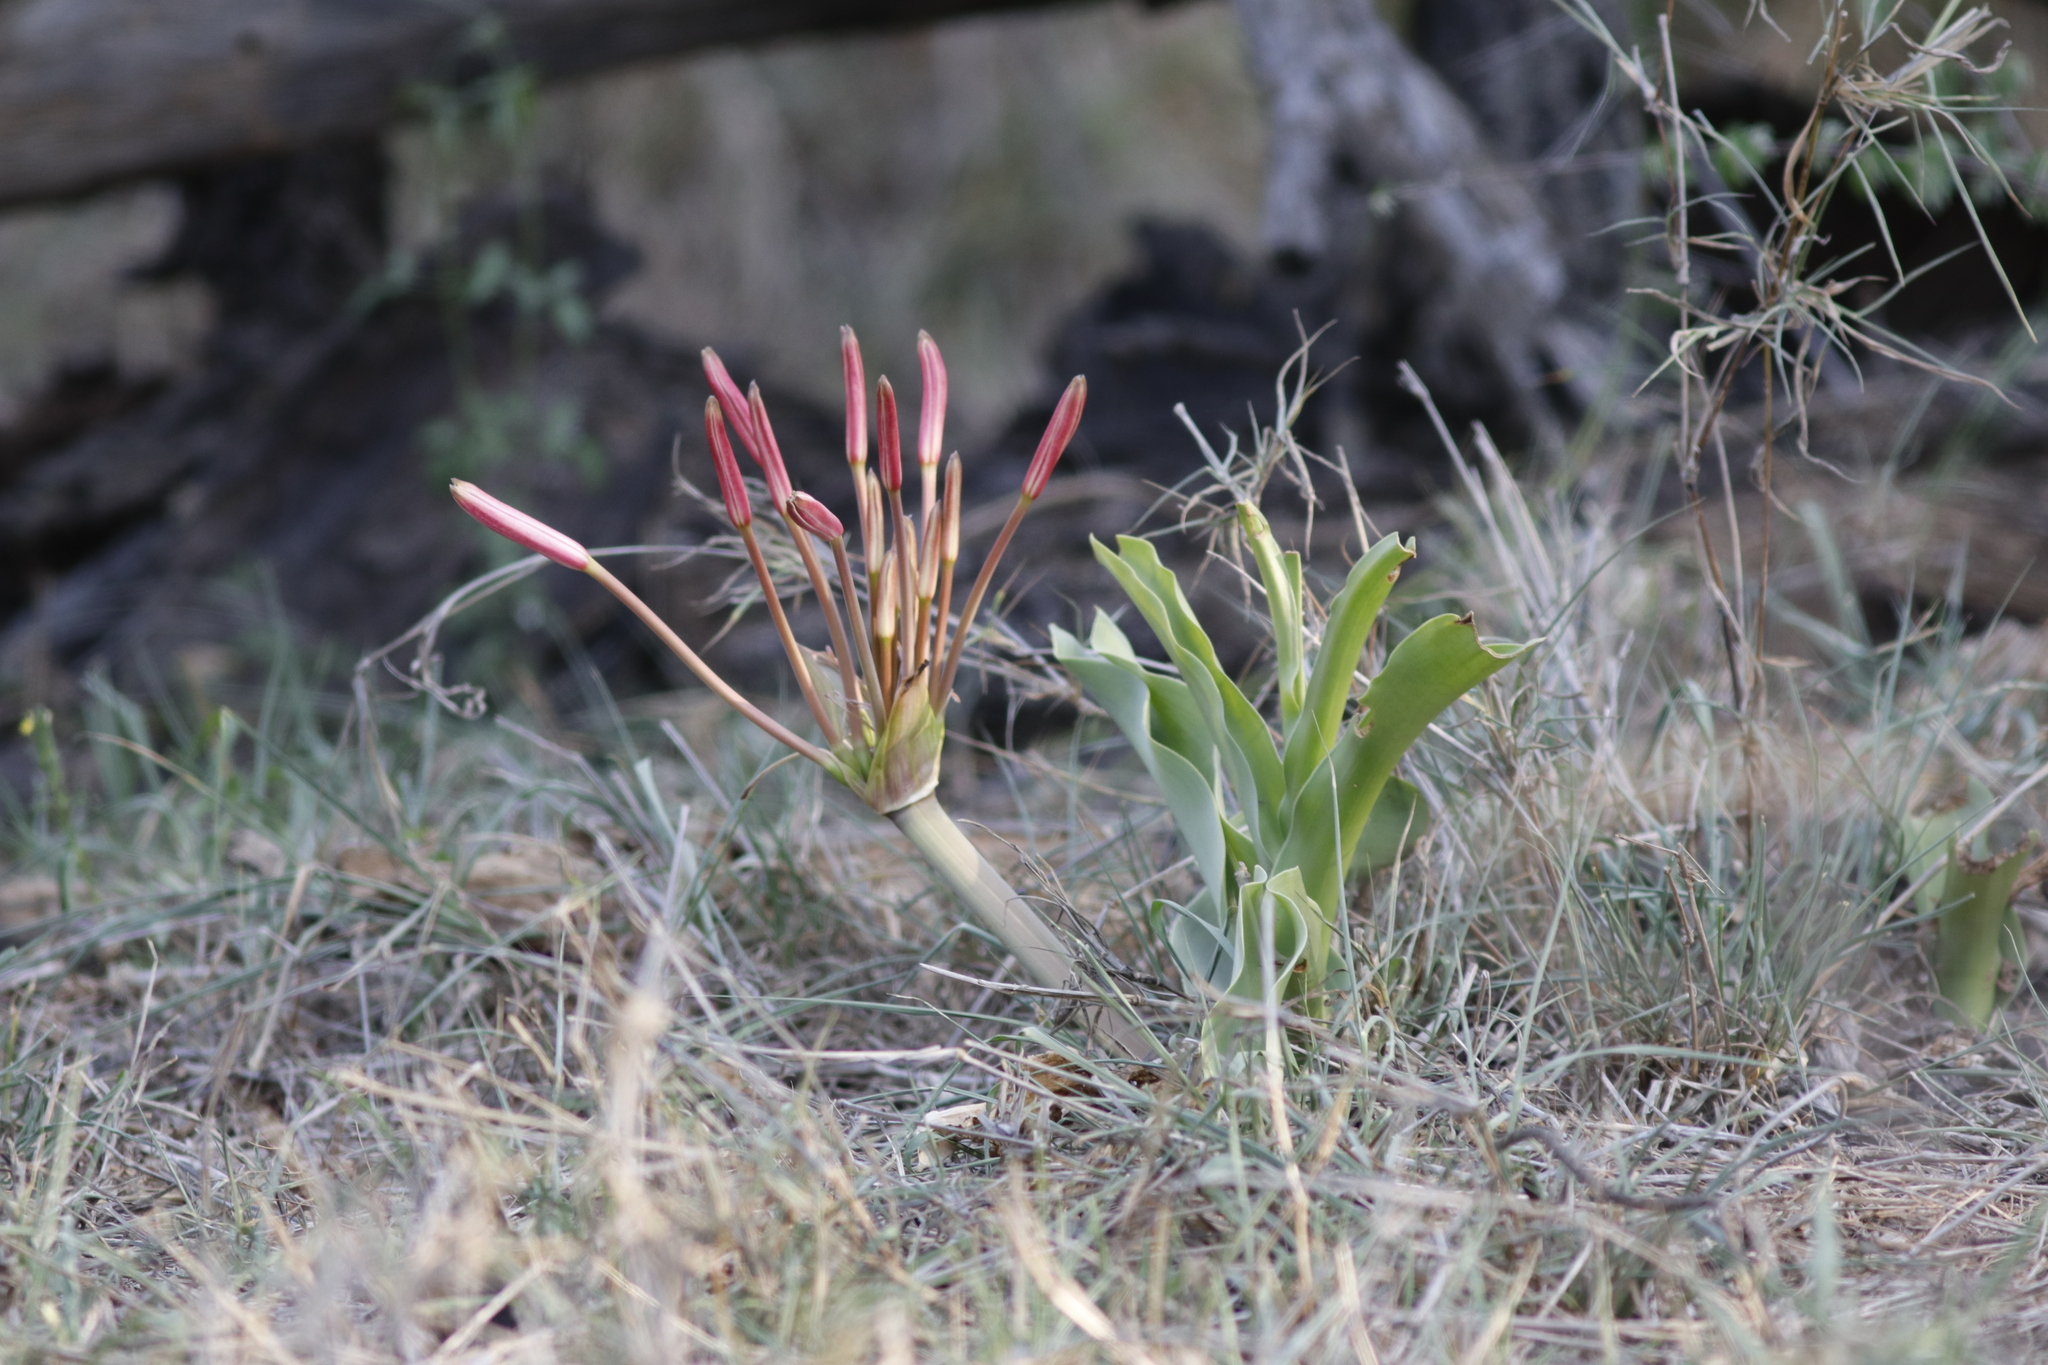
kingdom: Plantae
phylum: Tracheophyta
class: Liliopsida
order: Asparagales
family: Amaryllidaceae
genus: Crinum
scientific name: Crinum buphanoides
